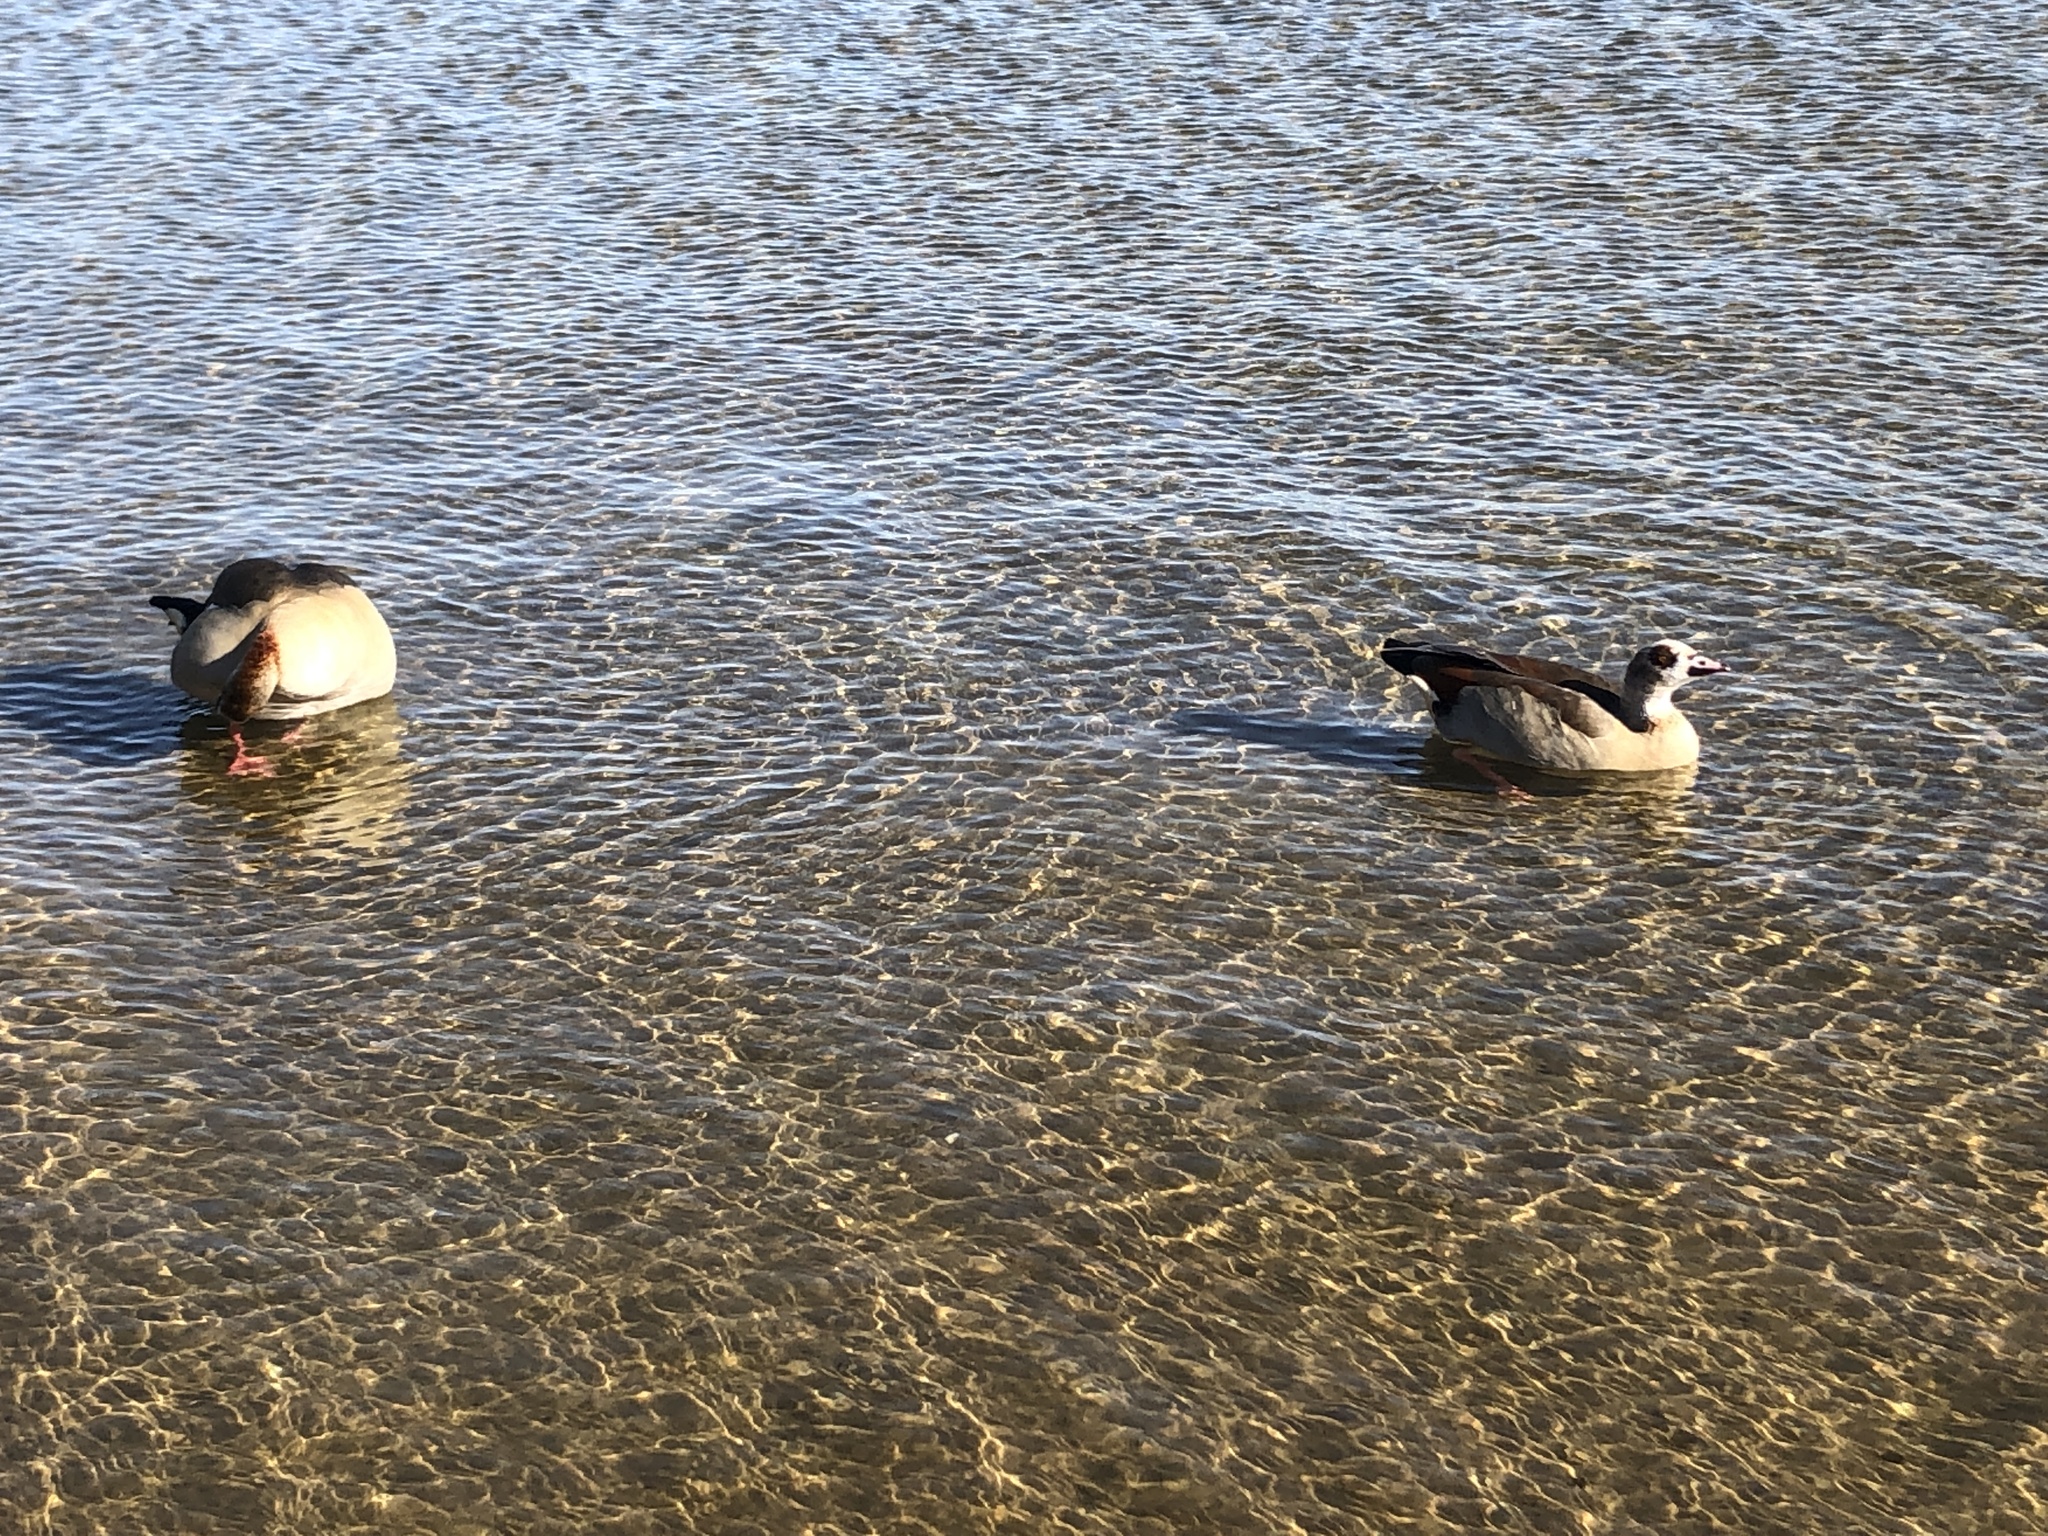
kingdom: Animalia
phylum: Chordata
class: Aves
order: Anseriformes
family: Anatidae
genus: Alopochen
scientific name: Alopochen aegyptiaca
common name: Egyptian goose
